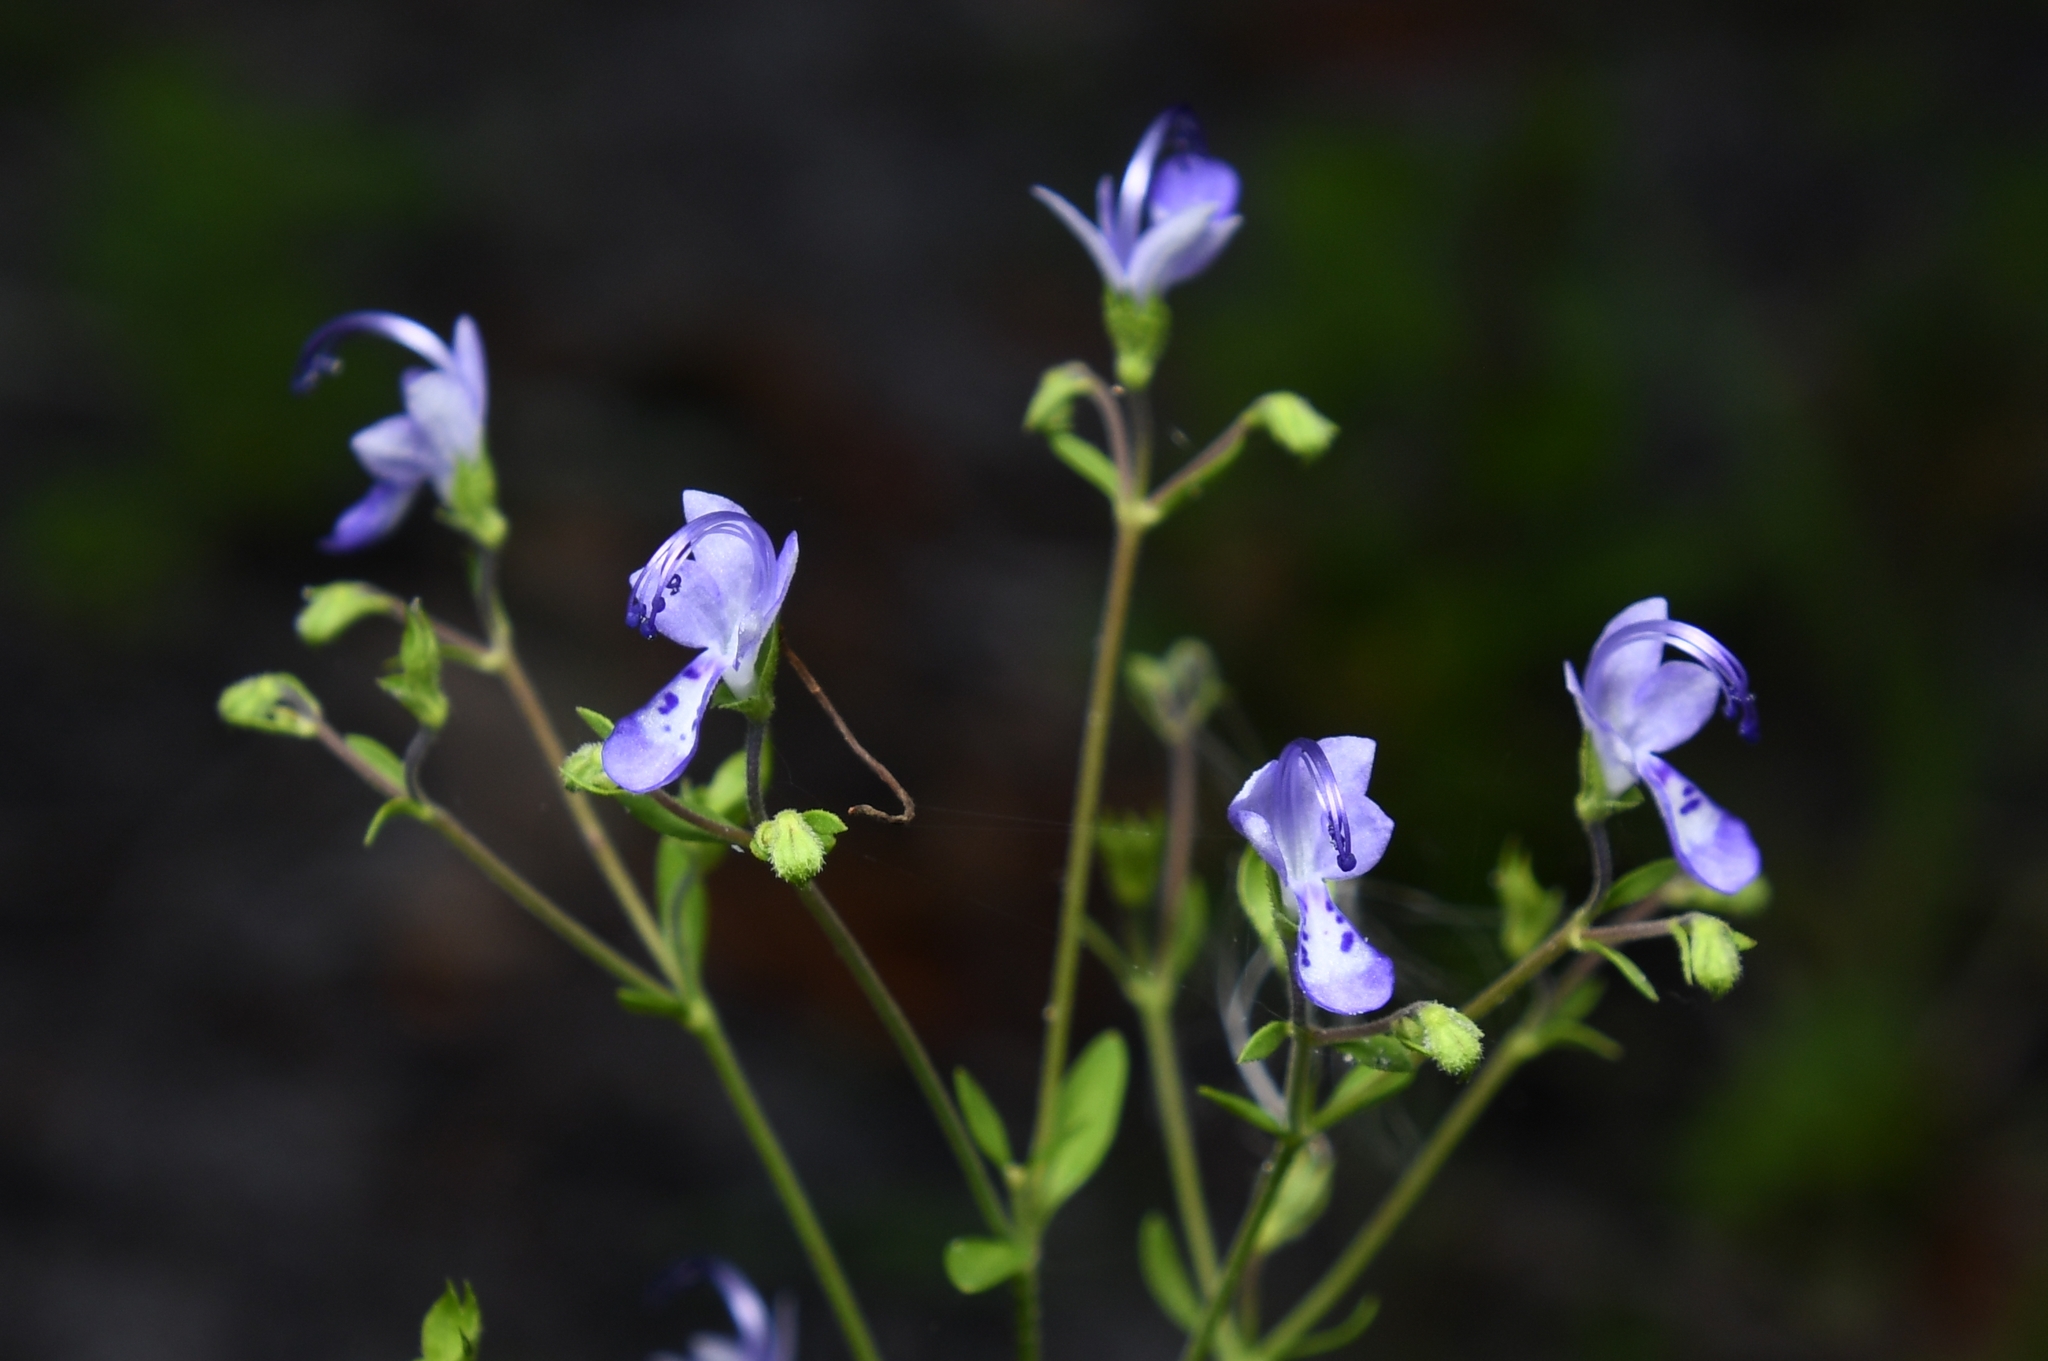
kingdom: Plantae
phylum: Tracheophyta
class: Magnoliopsida
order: Lamiales
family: Lamiaceae
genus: Trichostema
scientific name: Trichostema fruticosum
